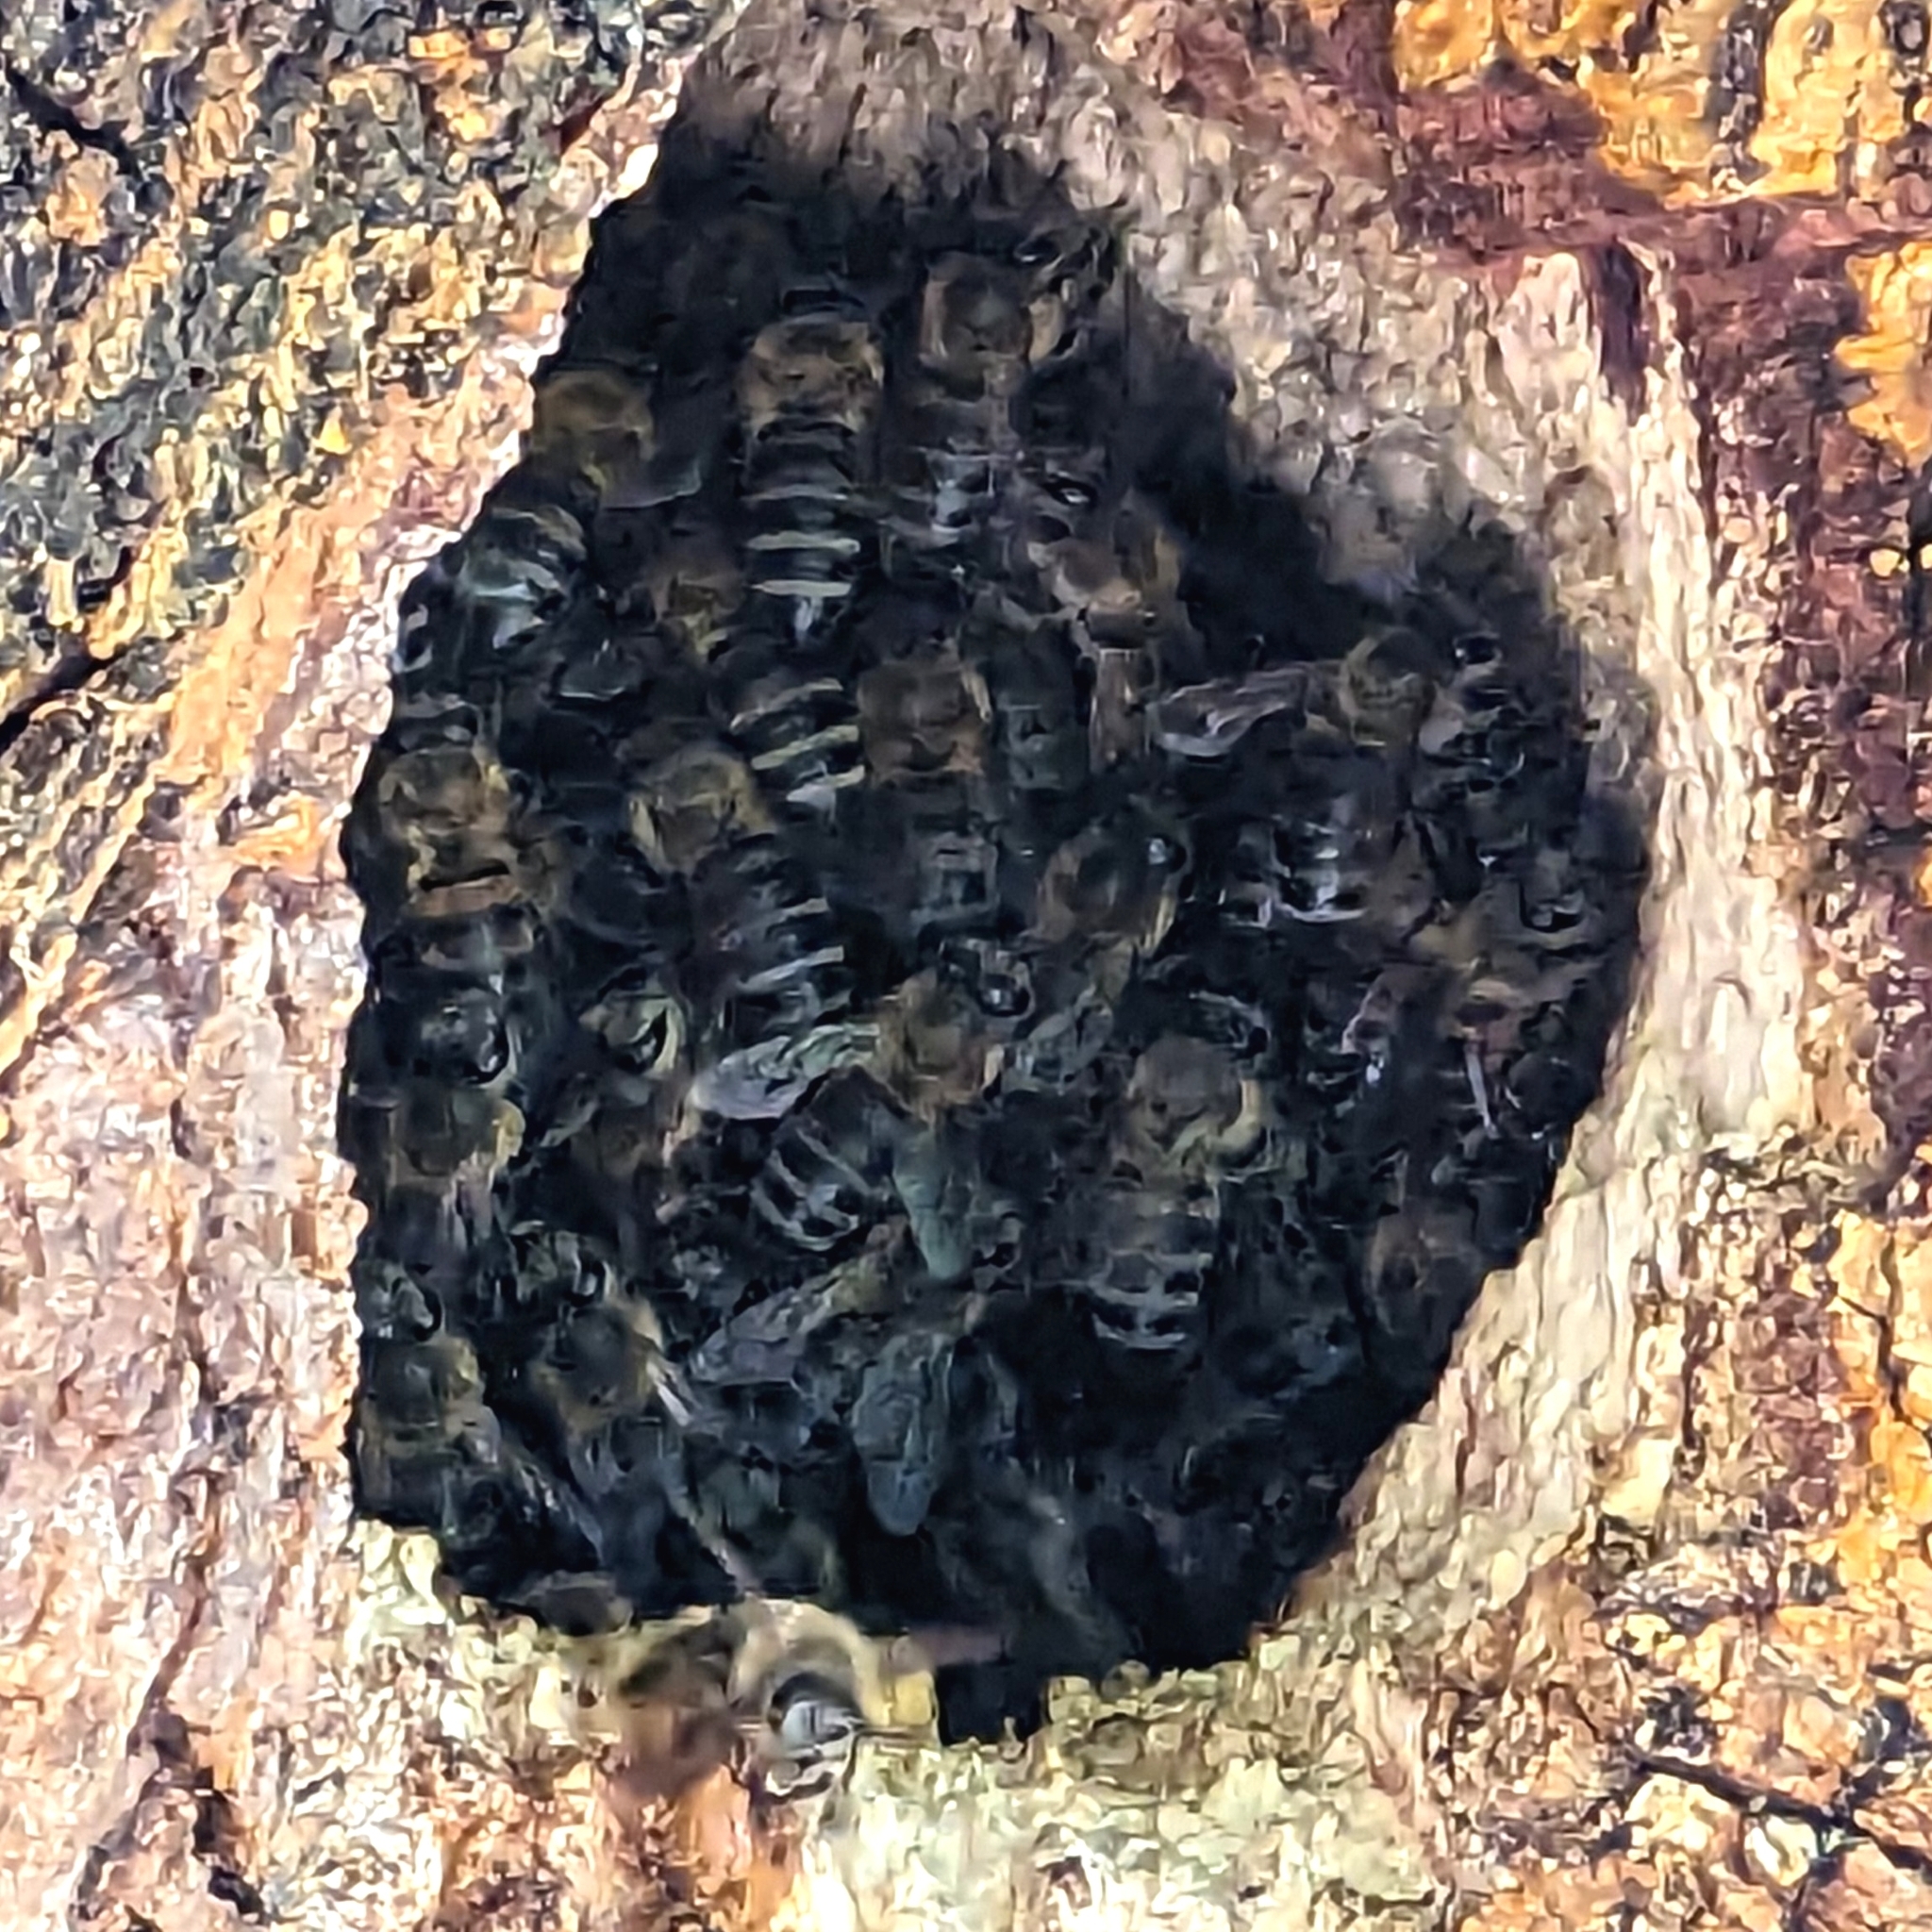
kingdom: Animalia
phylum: Arthropoda
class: Insecta
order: Hymenoptera
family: Apidae
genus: Apis
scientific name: Apis mellifera
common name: Honey bee
